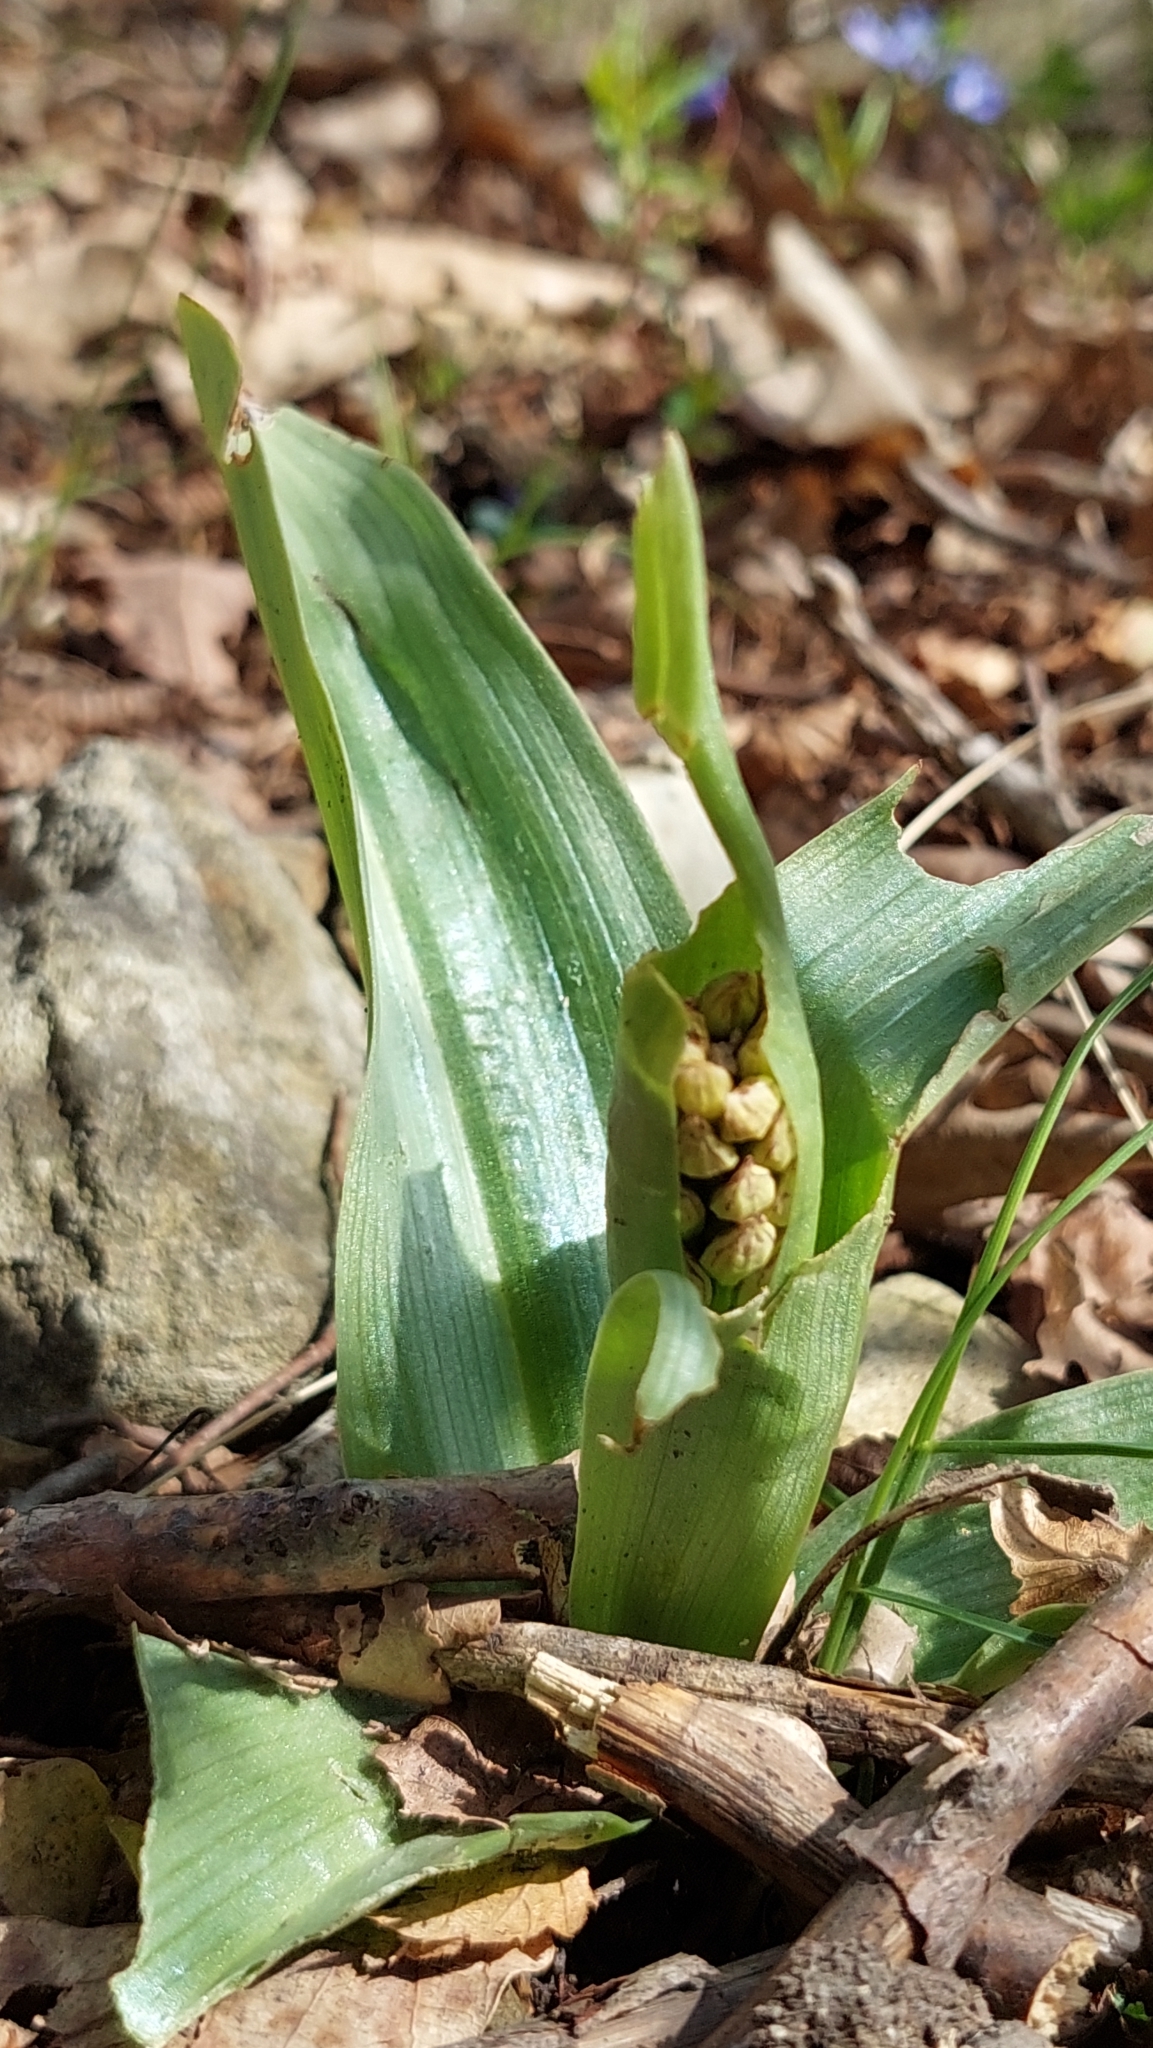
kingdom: Plantae
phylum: Tracheophyta
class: Liliopsida
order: Asparagales
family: Orchidaceae
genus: Orchis
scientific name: Orchis punctulata
